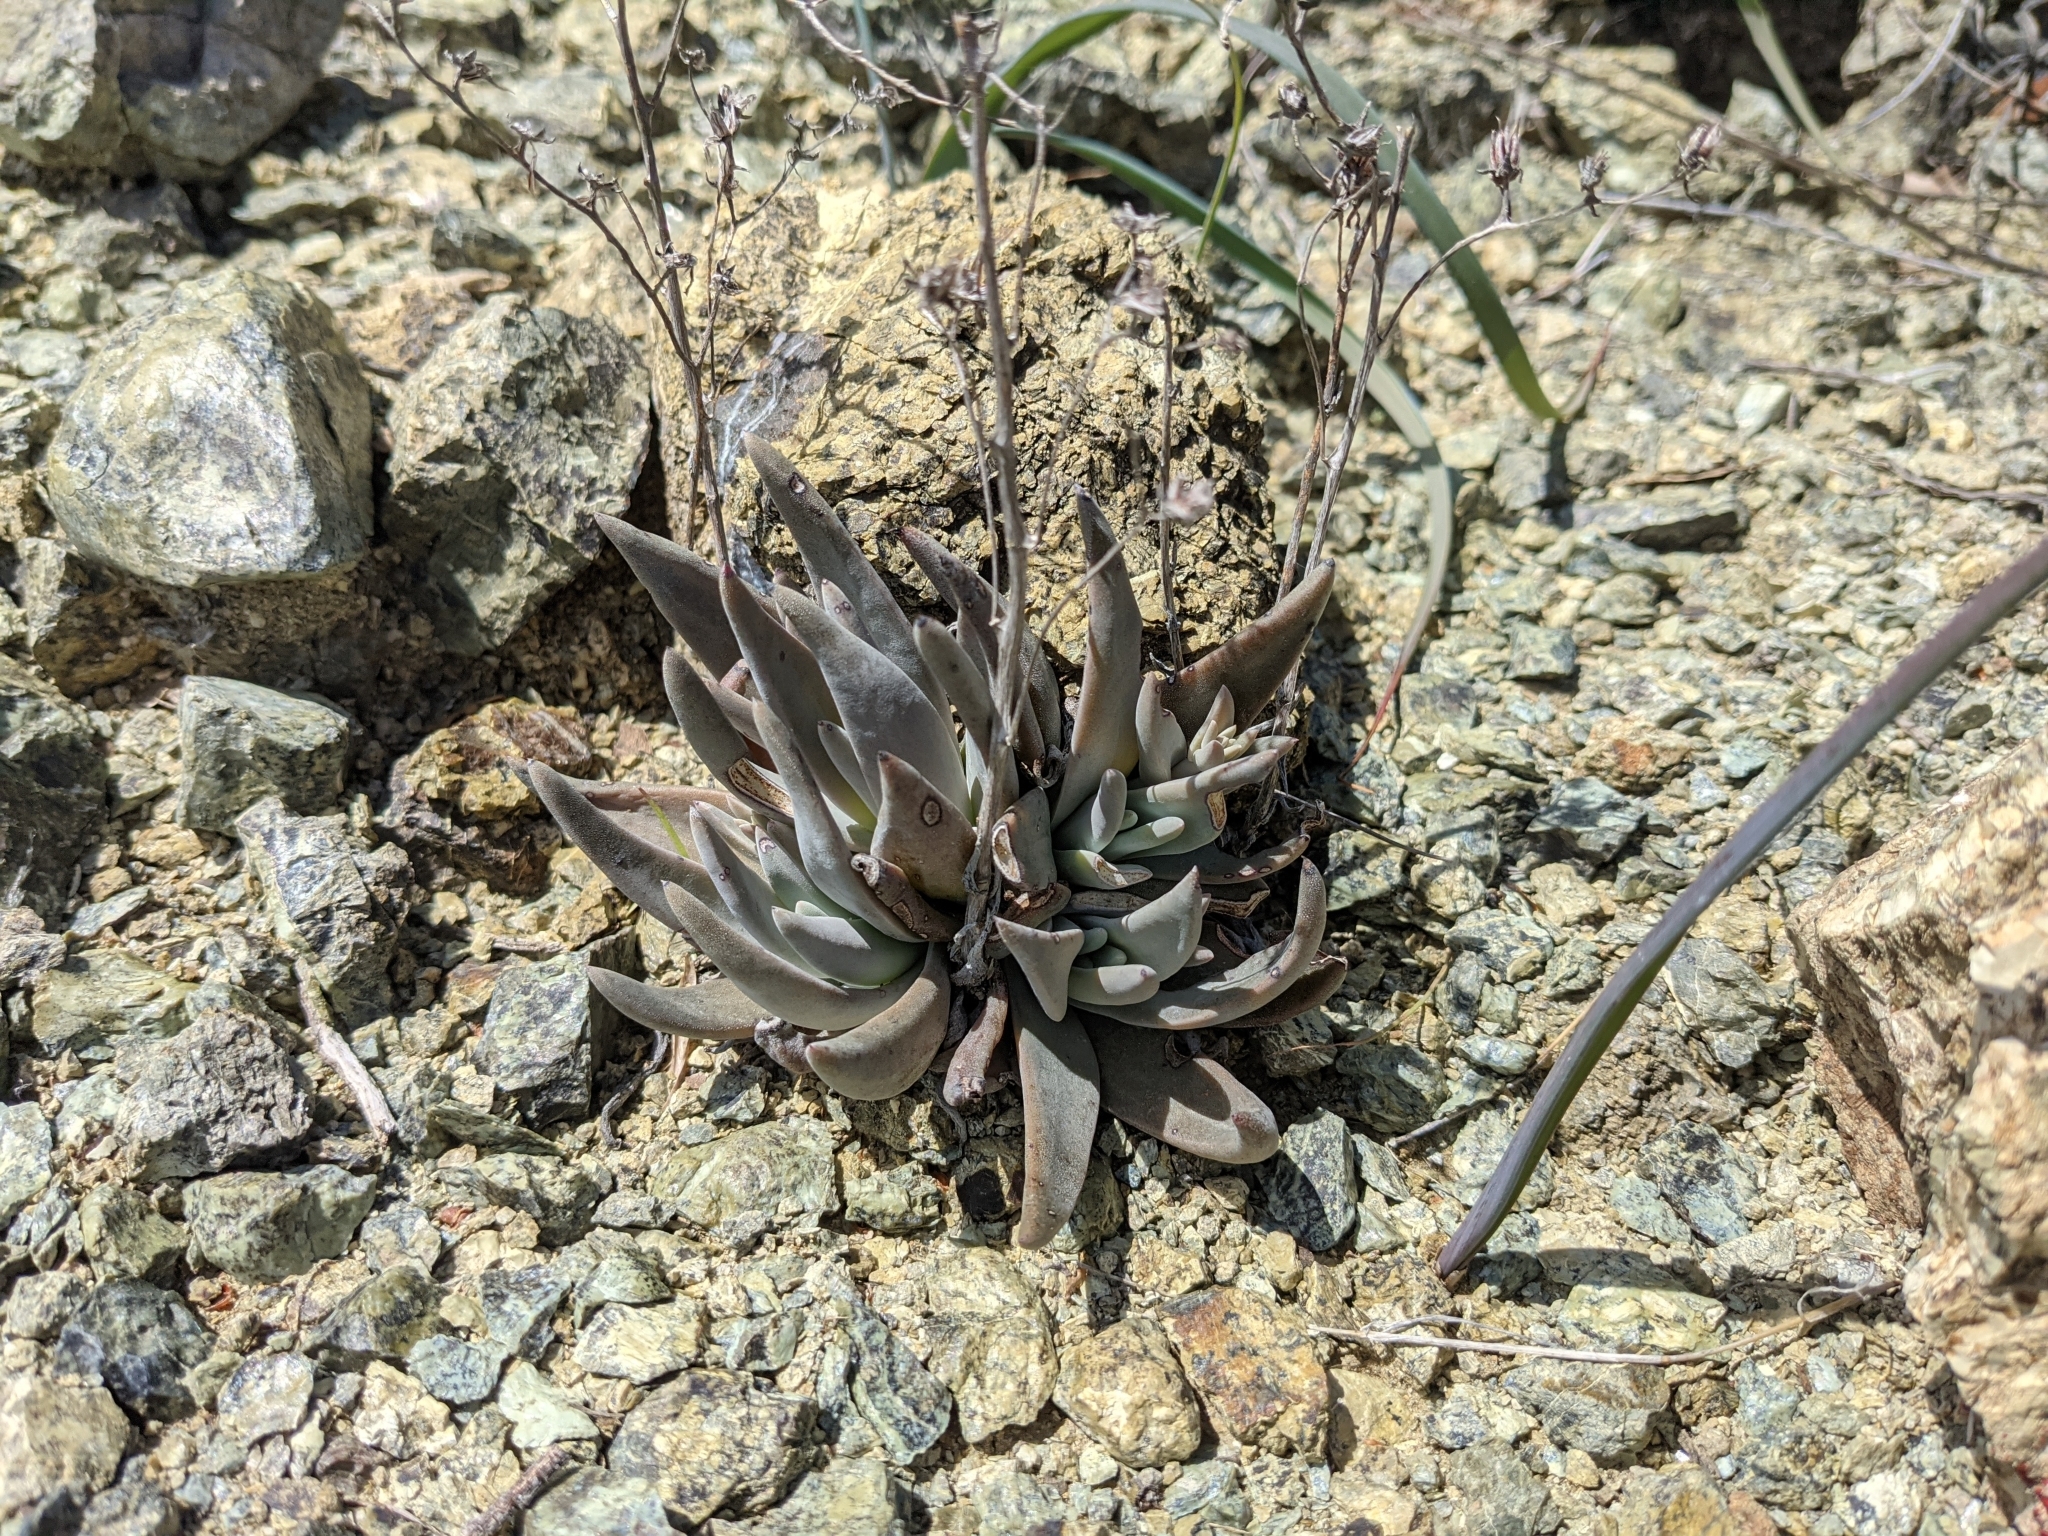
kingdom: Plantae
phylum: Tracheophyta
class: Magnoliopsida
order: Saxifragales
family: Crassulaceae
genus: Dudleya
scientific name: Dudleya abramsii
